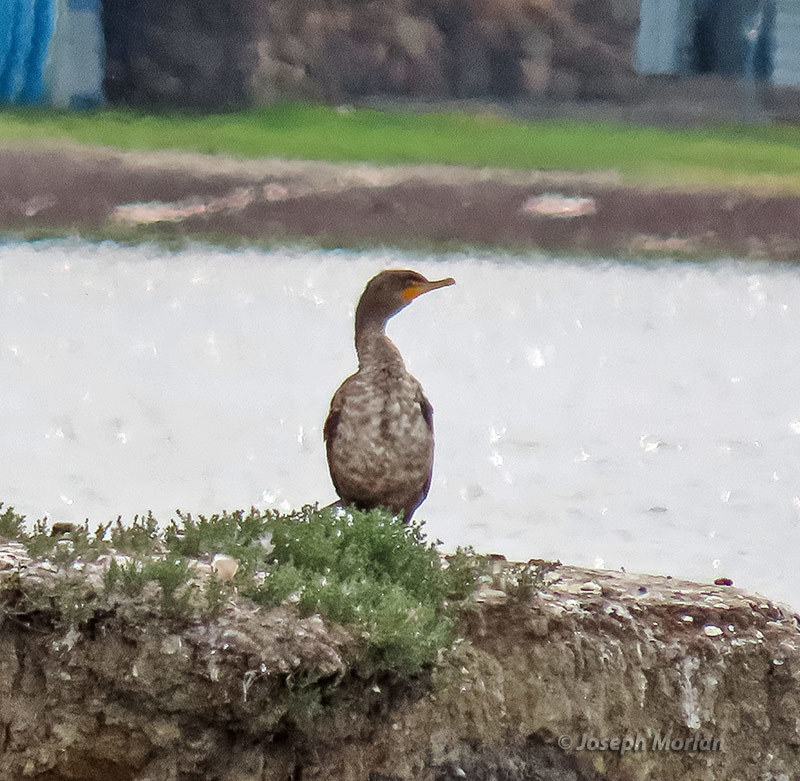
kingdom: Animalia
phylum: Chordata
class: Aves
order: Suliformes
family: Phalacrocoracidae
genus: Phalacrocorax
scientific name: Phalacrocorax auritus
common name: Double-crested cormorant
